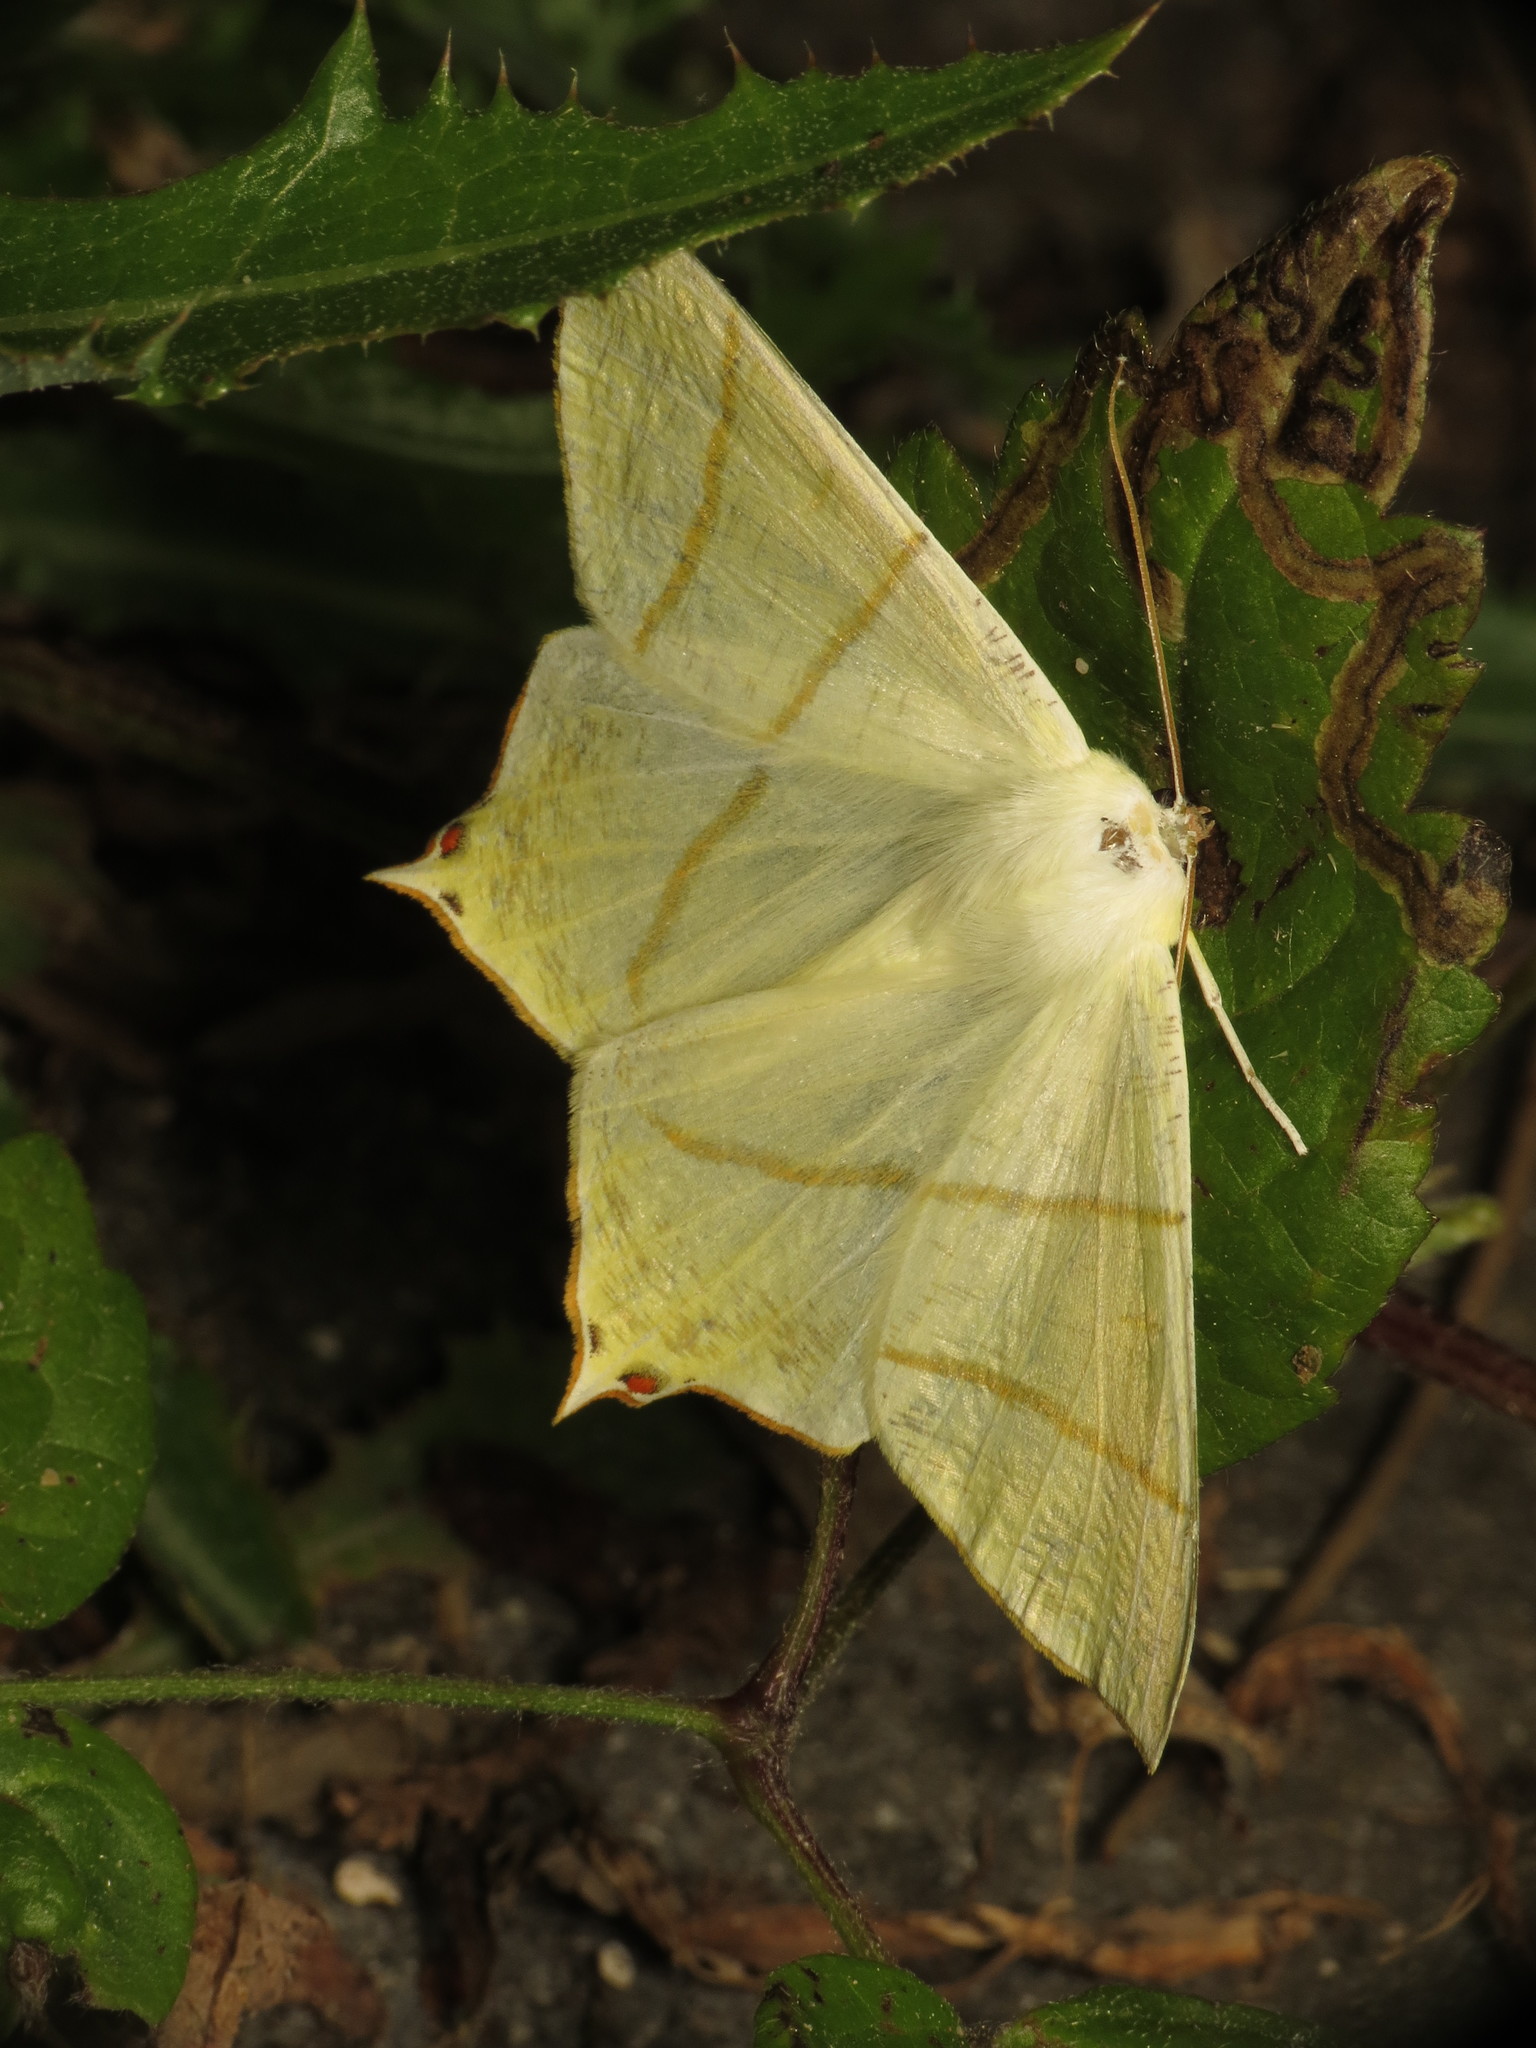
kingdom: Animalia
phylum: Arthropoda
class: Insecta
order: Lepidoptera
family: Geometridae
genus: Ourapteryx
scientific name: Ourapteryx sambucaria
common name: Swallow-tailed moth
